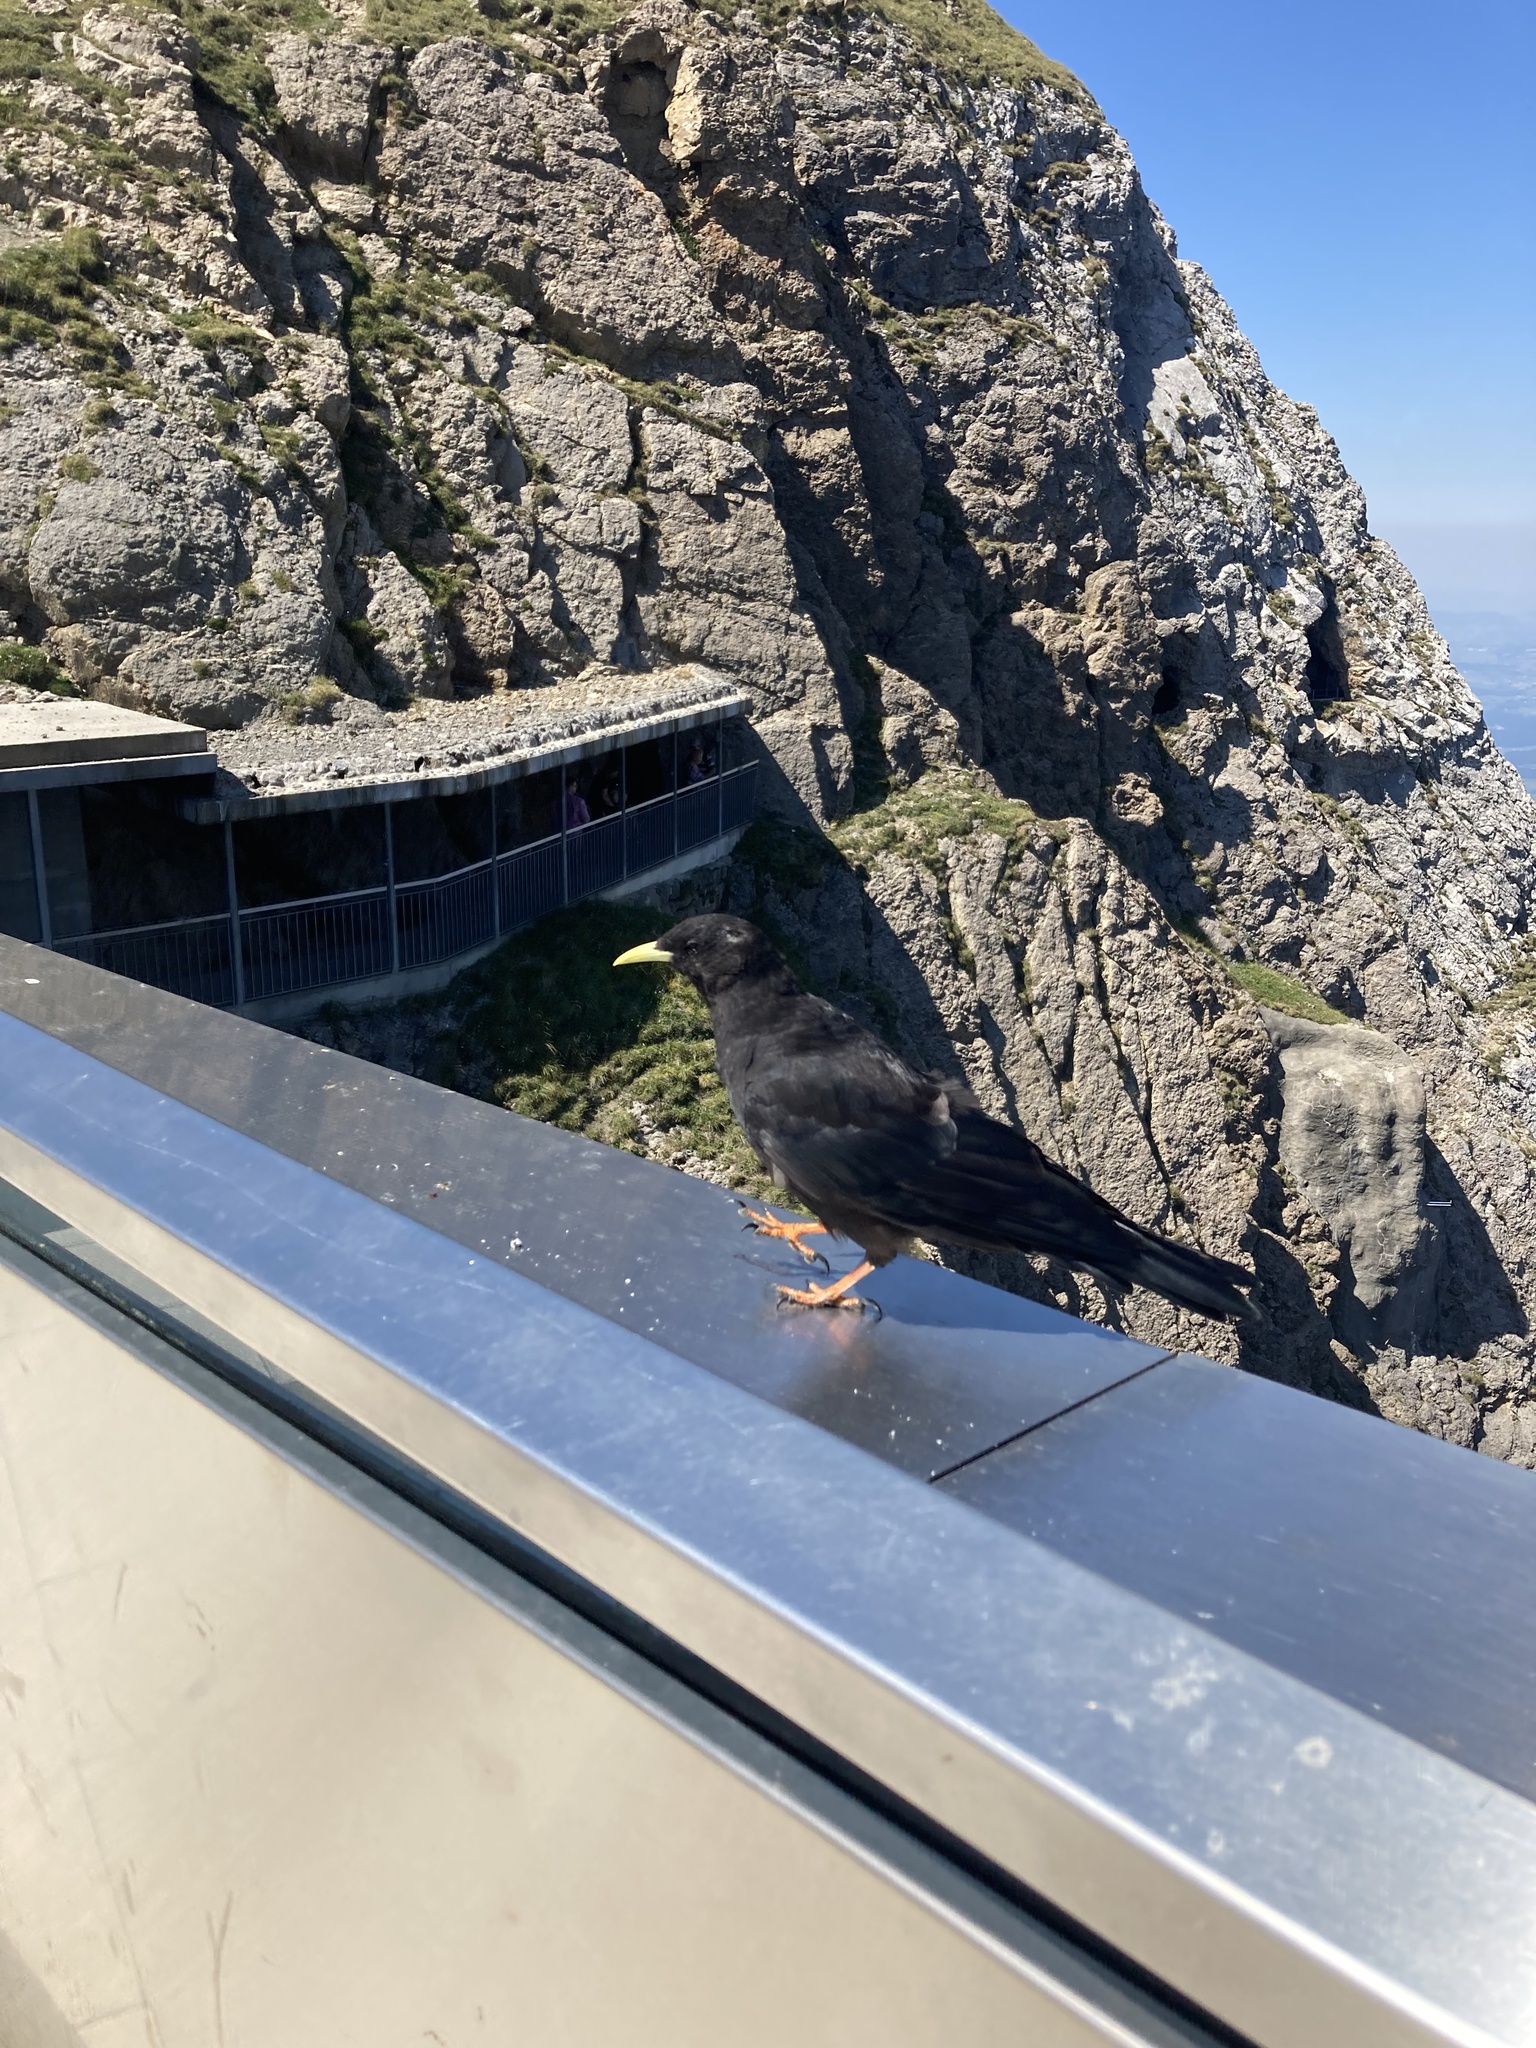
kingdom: Animalia
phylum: Chordata
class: Aves
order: Passeriformes
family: Corvidae
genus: Pyrrhocorax
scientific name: Pyrrhocorax graculus
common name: Alpine chough
